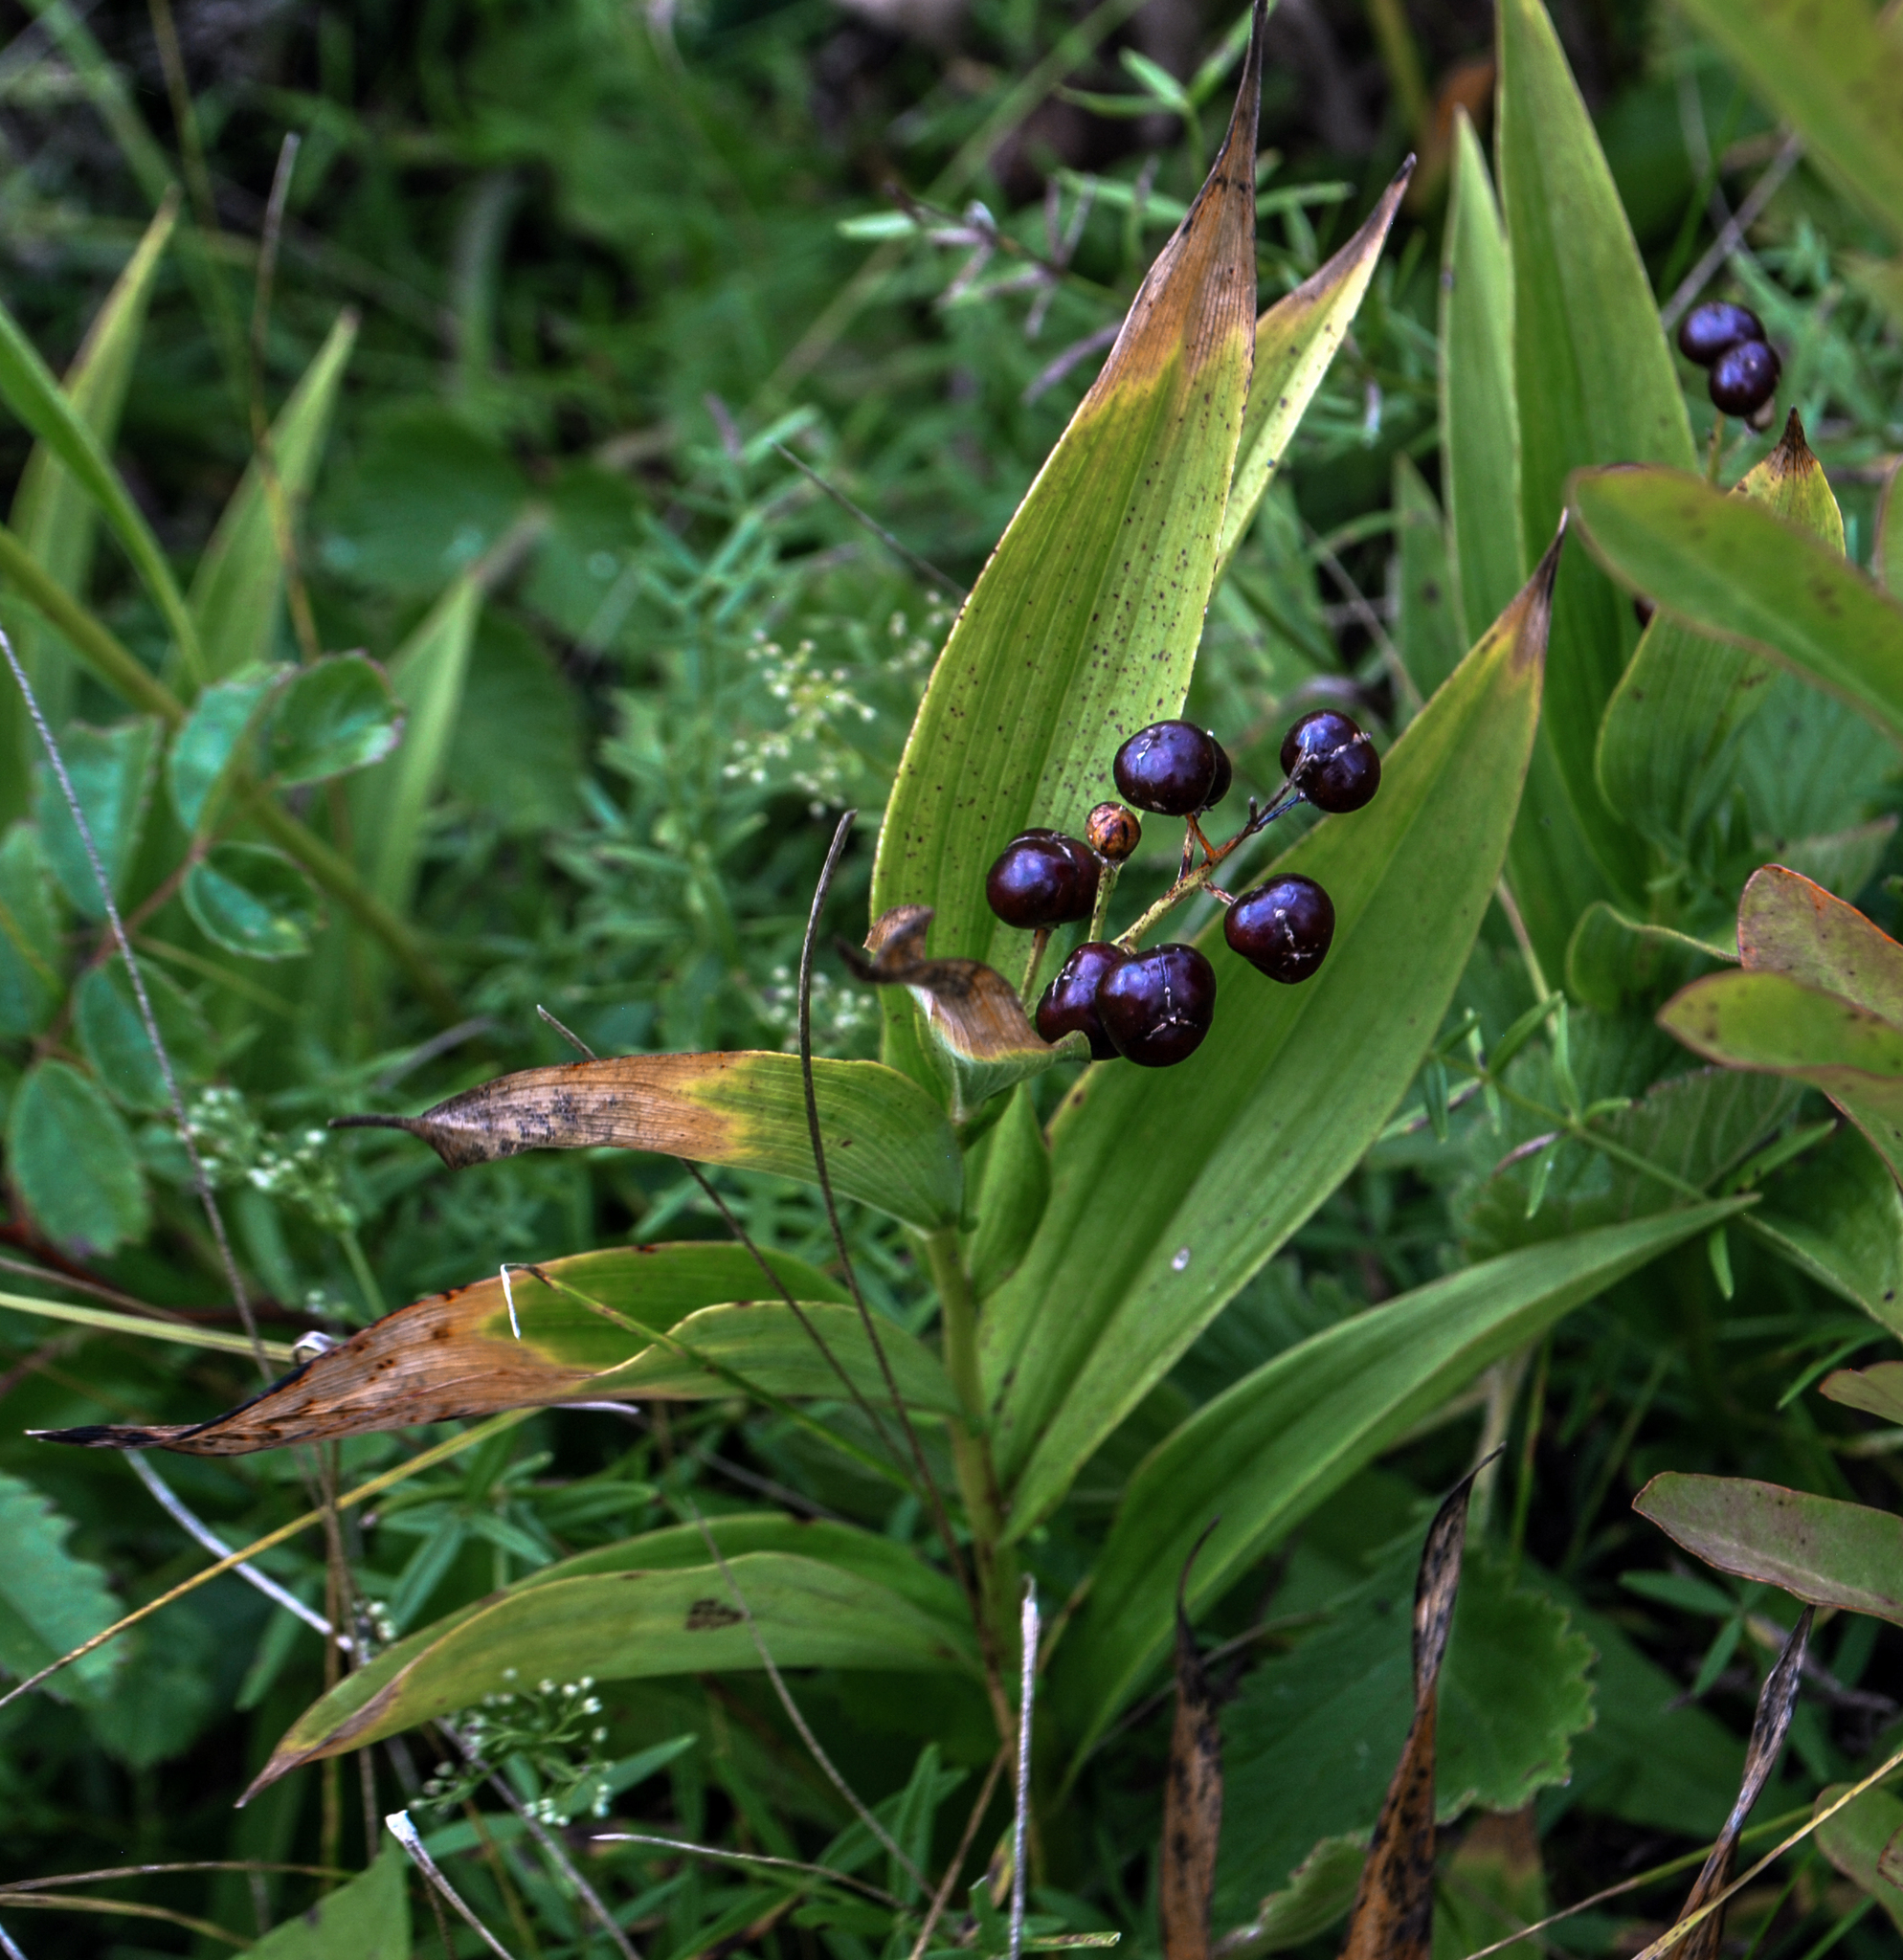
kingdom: Plantae
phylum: Tracheophyta
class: Liliopsida
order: Asparagales
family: Asparagaceae
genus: Maianthemum
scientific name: Maianthemum stellatum
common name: Little false solomon's seal
